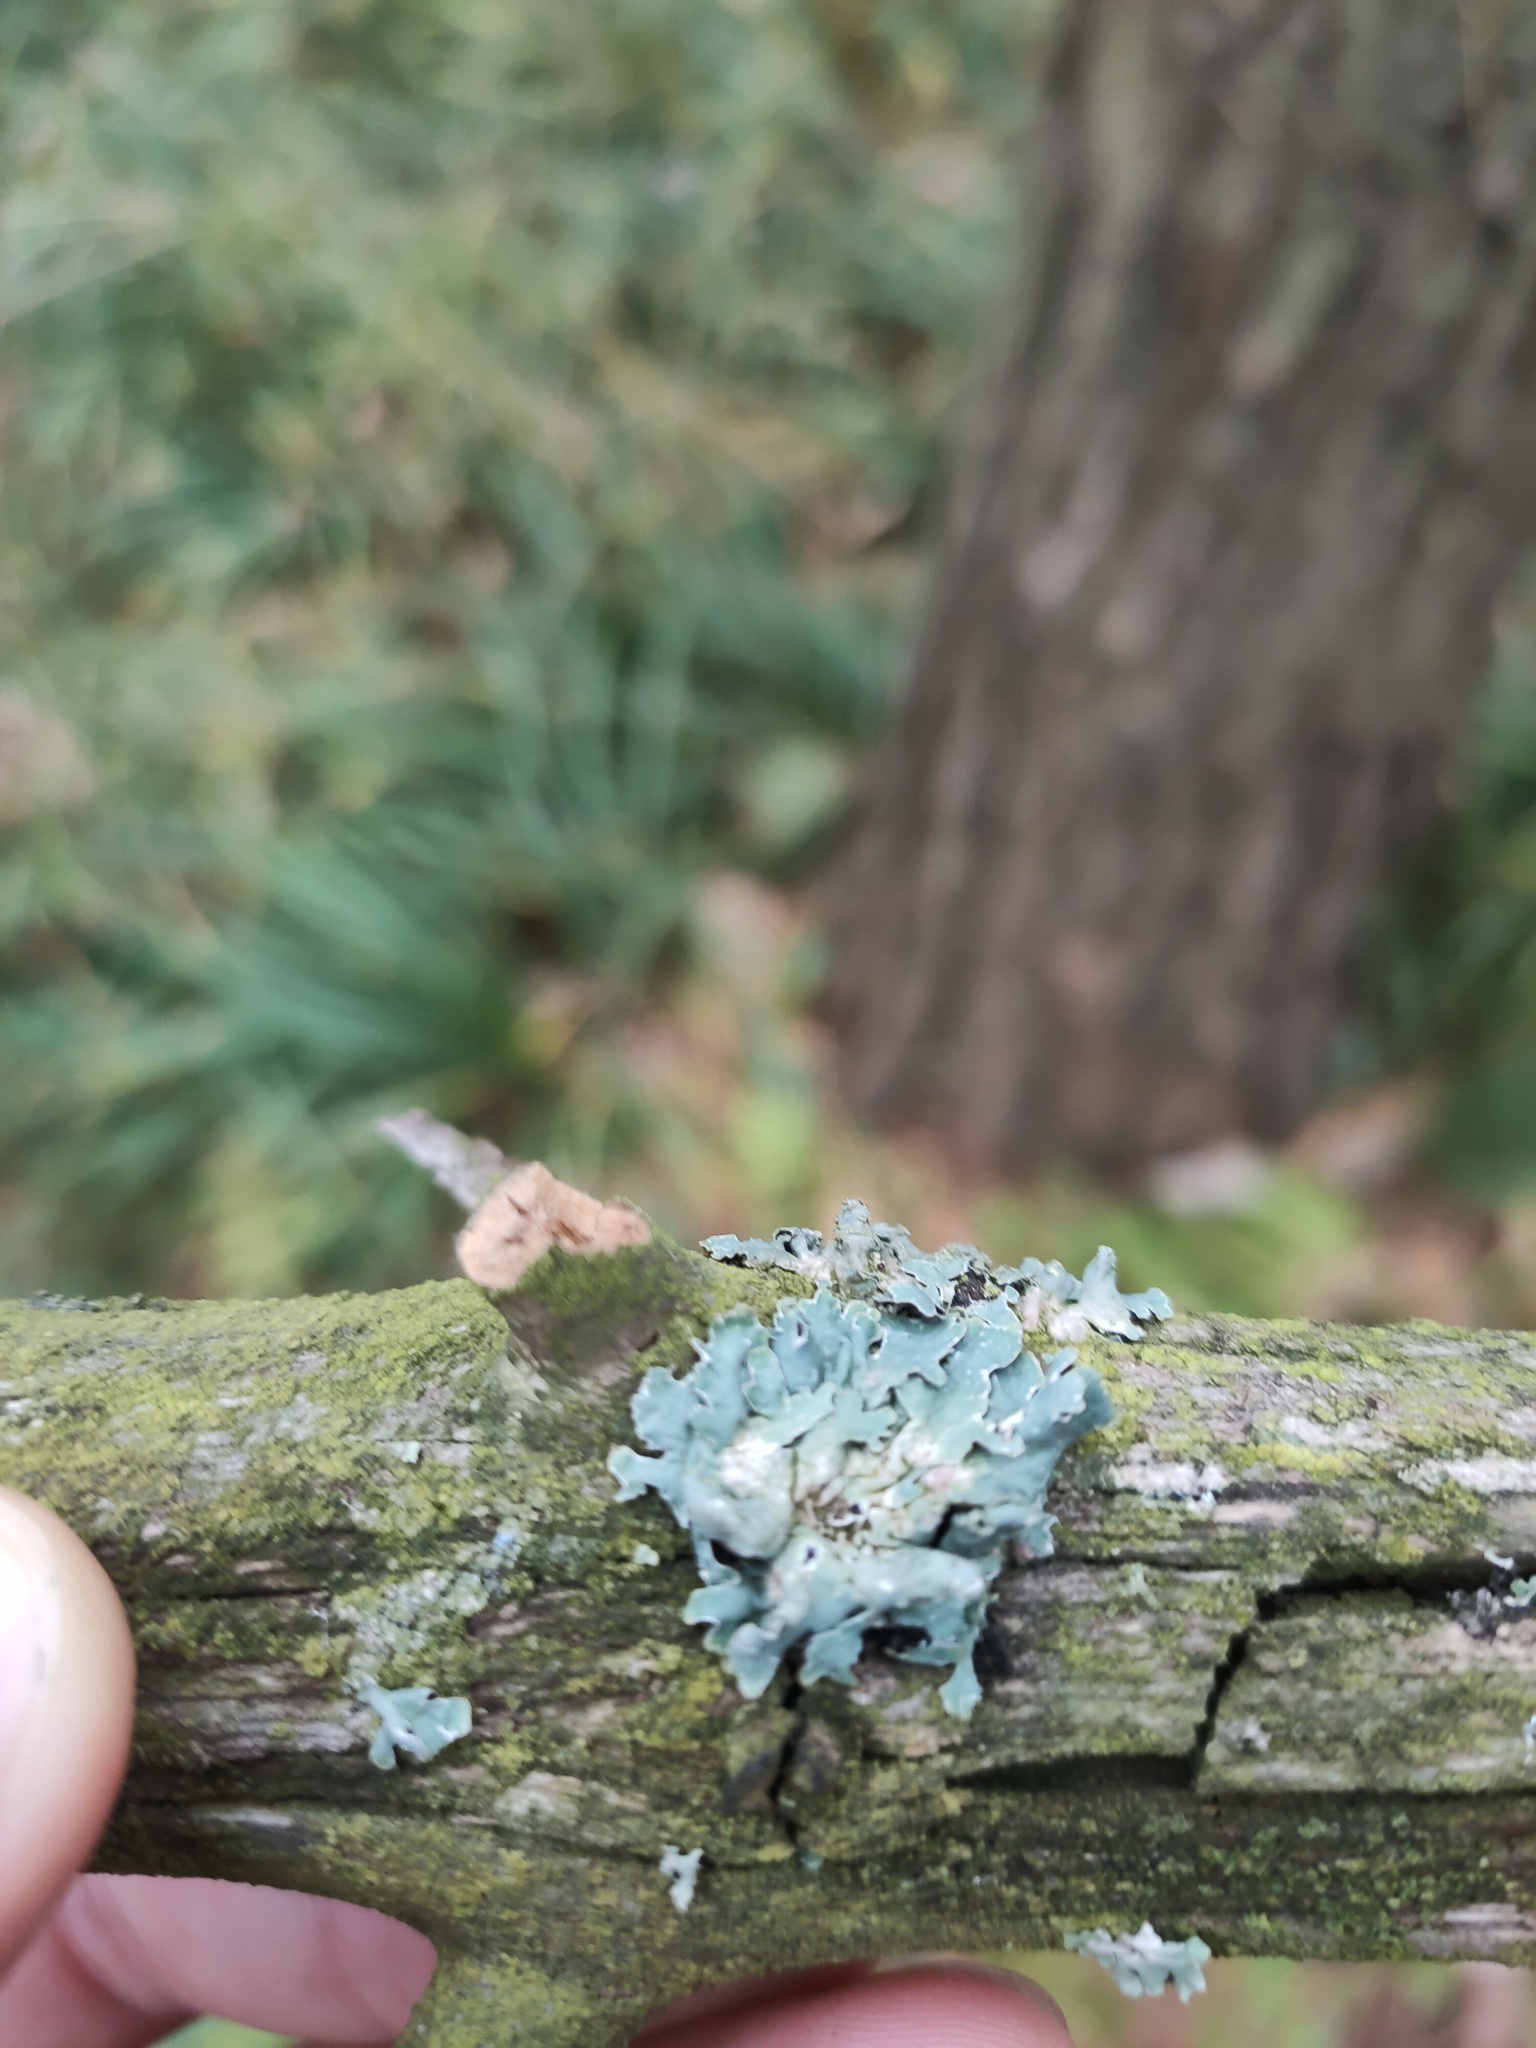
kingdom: Fungi
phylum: Ascomycota
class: Lecanoromycetes
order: Lecanorales
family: Parmeliaceae
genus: Parmelia
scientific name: Parmelia sulcata
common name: Netted shield lichen
